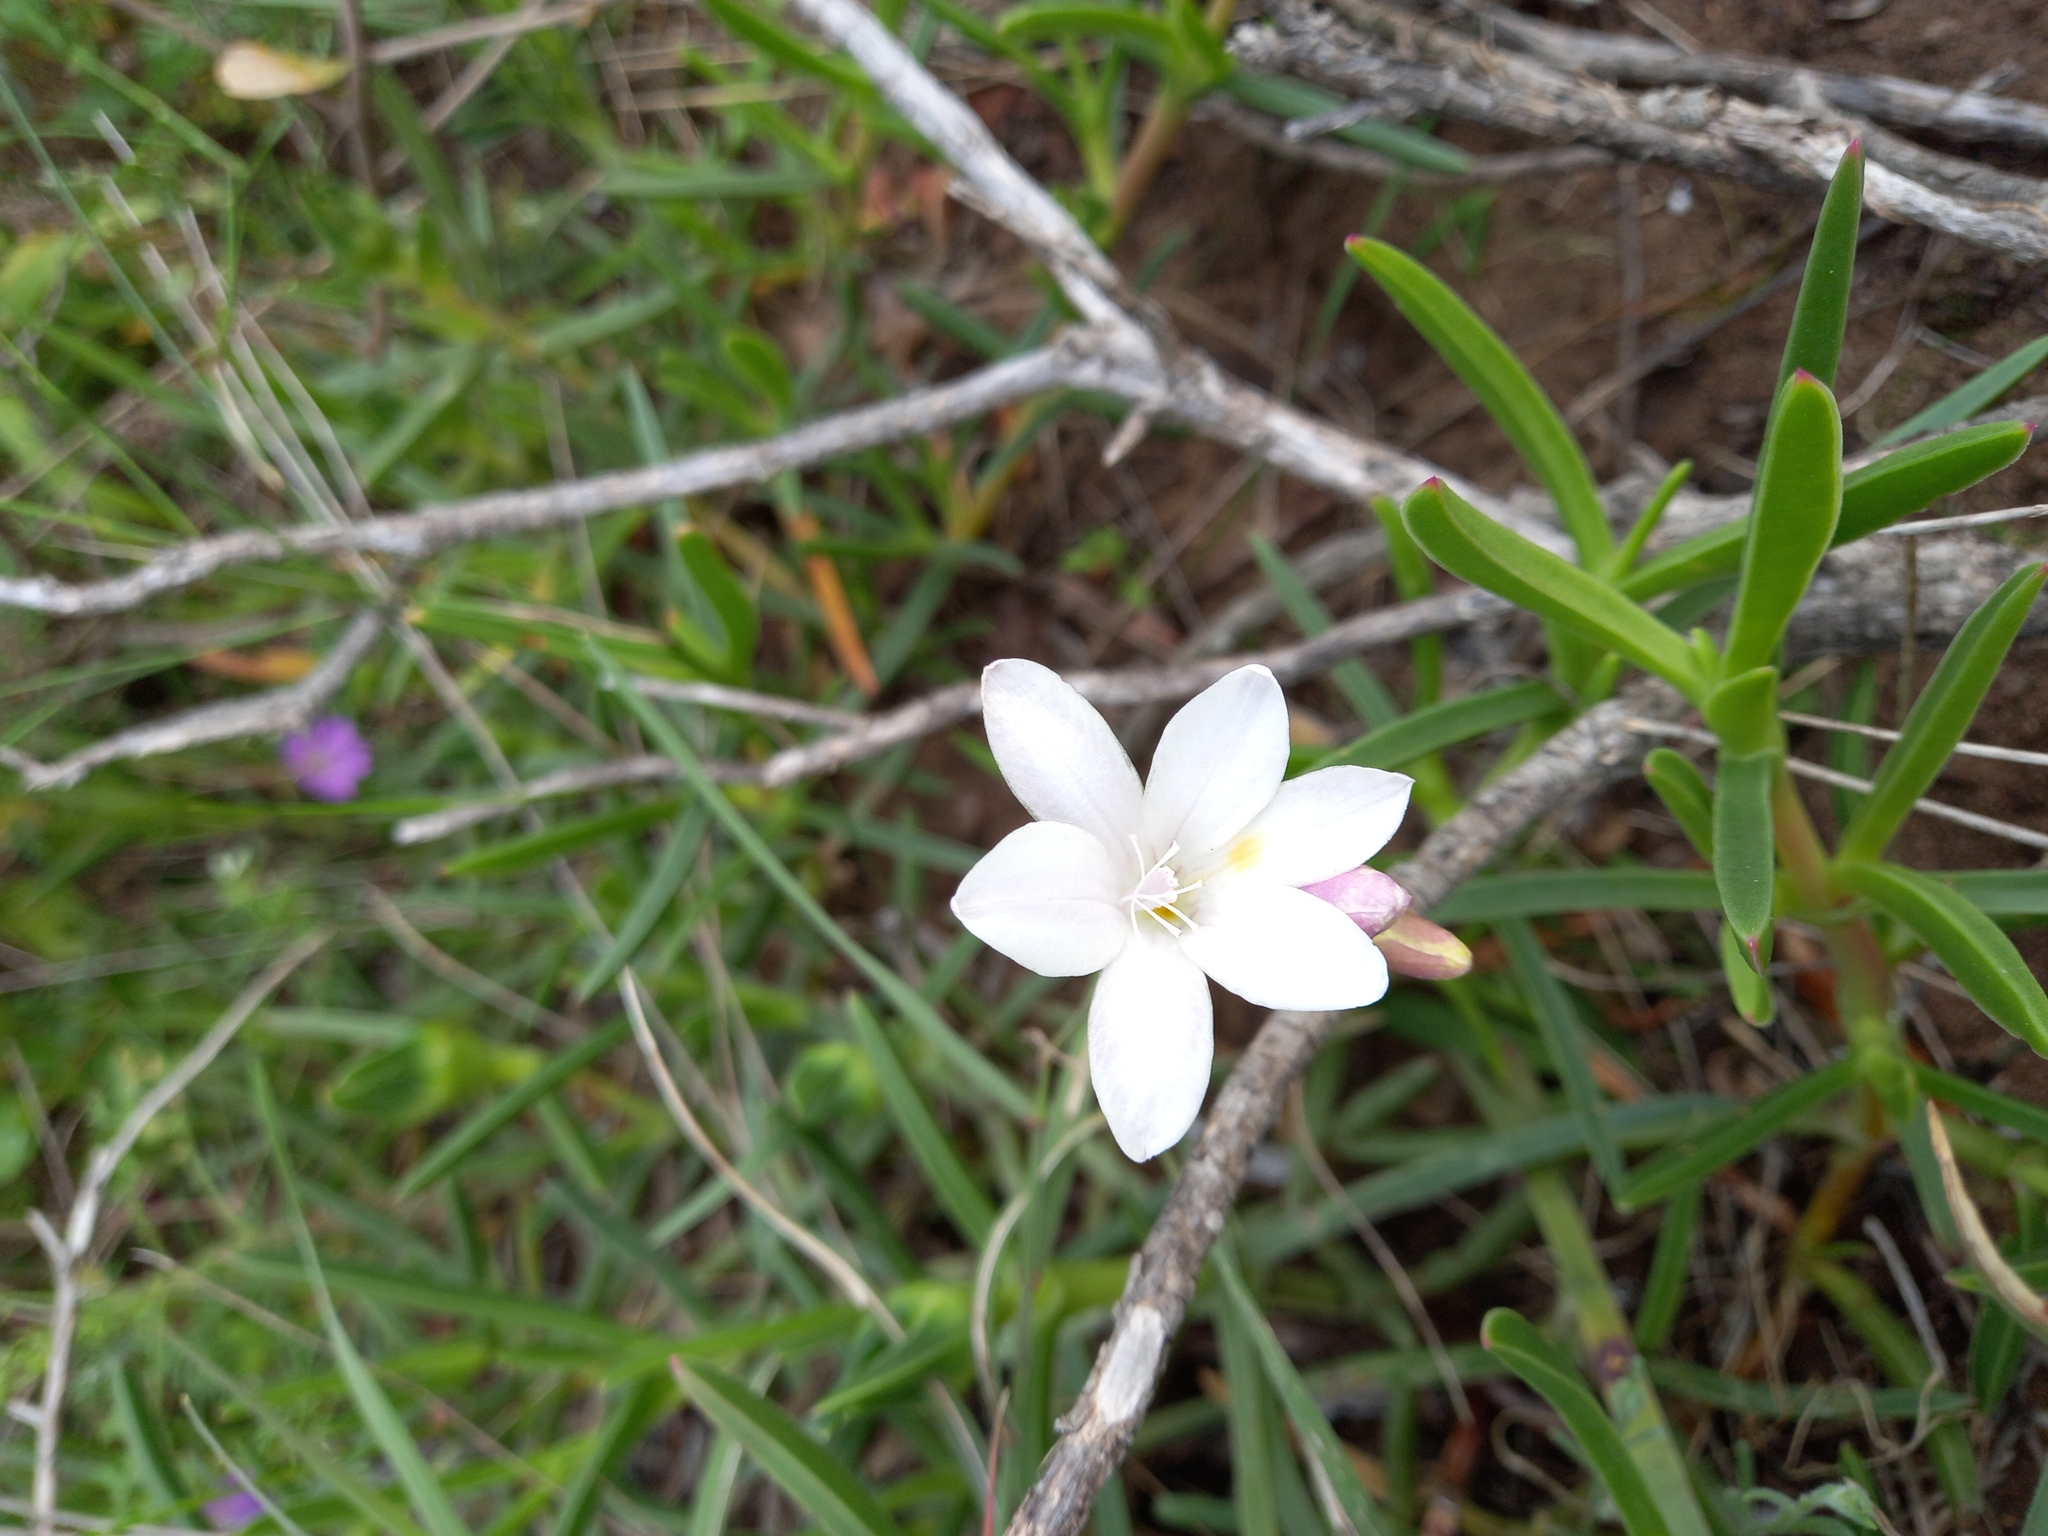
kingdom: Plantae
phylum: Tracheophyta
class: Liliopsida
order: Asparagales
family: Iridaceae
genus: Freesia
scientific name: Freesia leichtlinii
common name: Freesia
